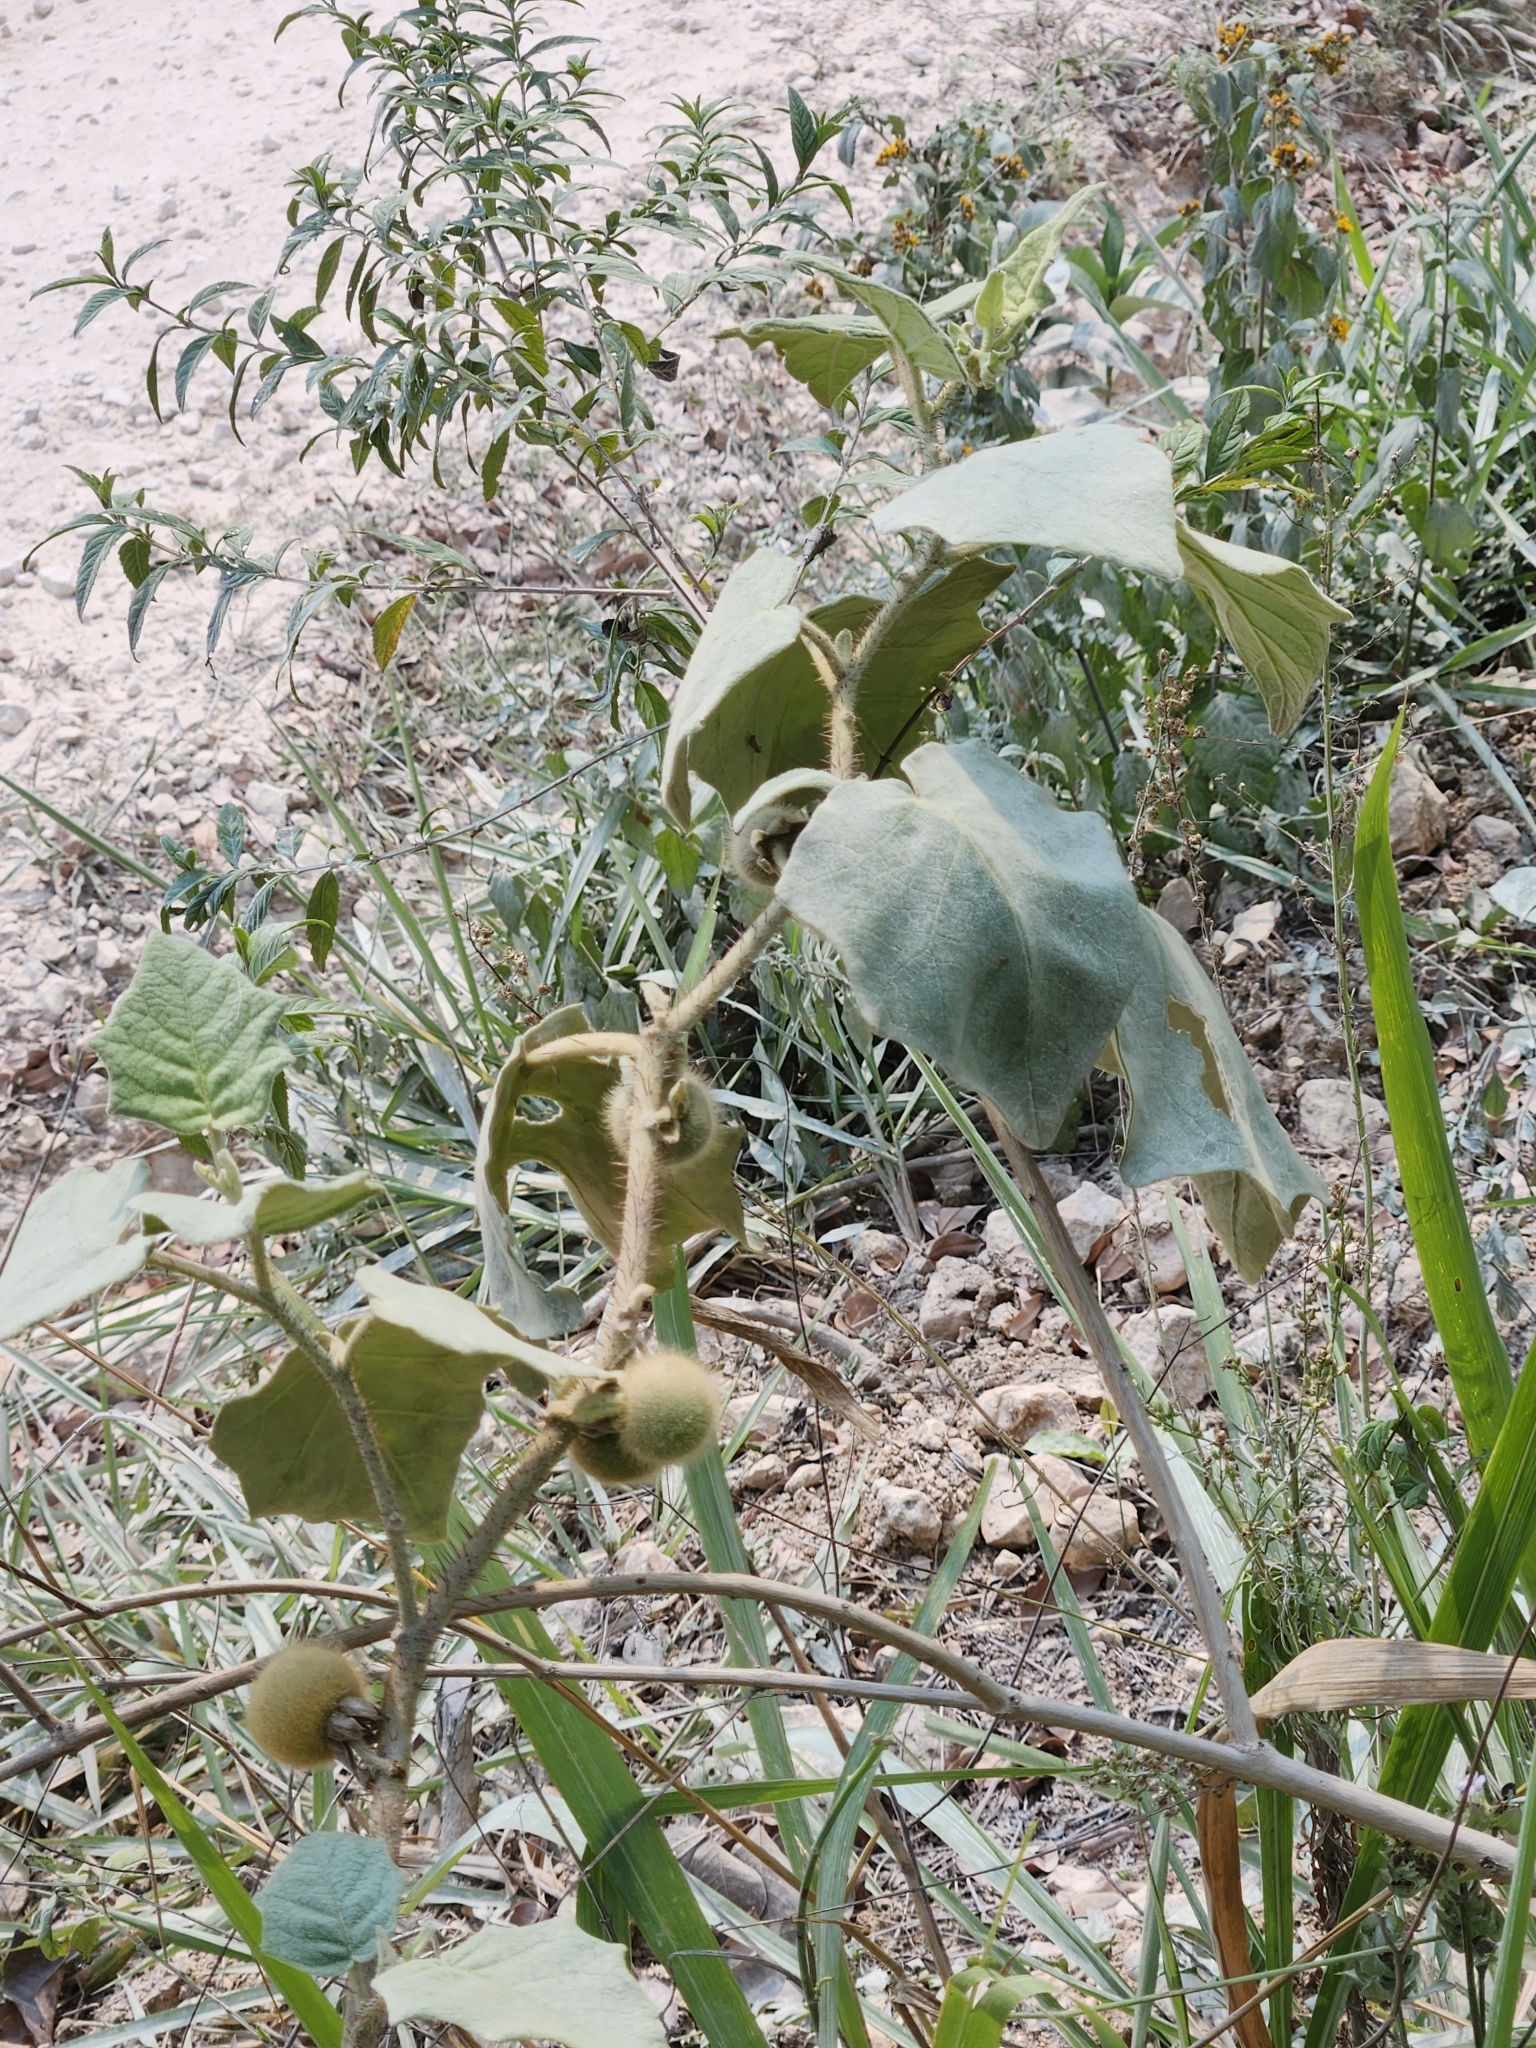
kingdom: Plantae
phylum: Tracheophyta
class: Magnoliopsida
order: Solanales
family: Solanaceae
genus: Solanum
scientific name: Solanum hirtum
